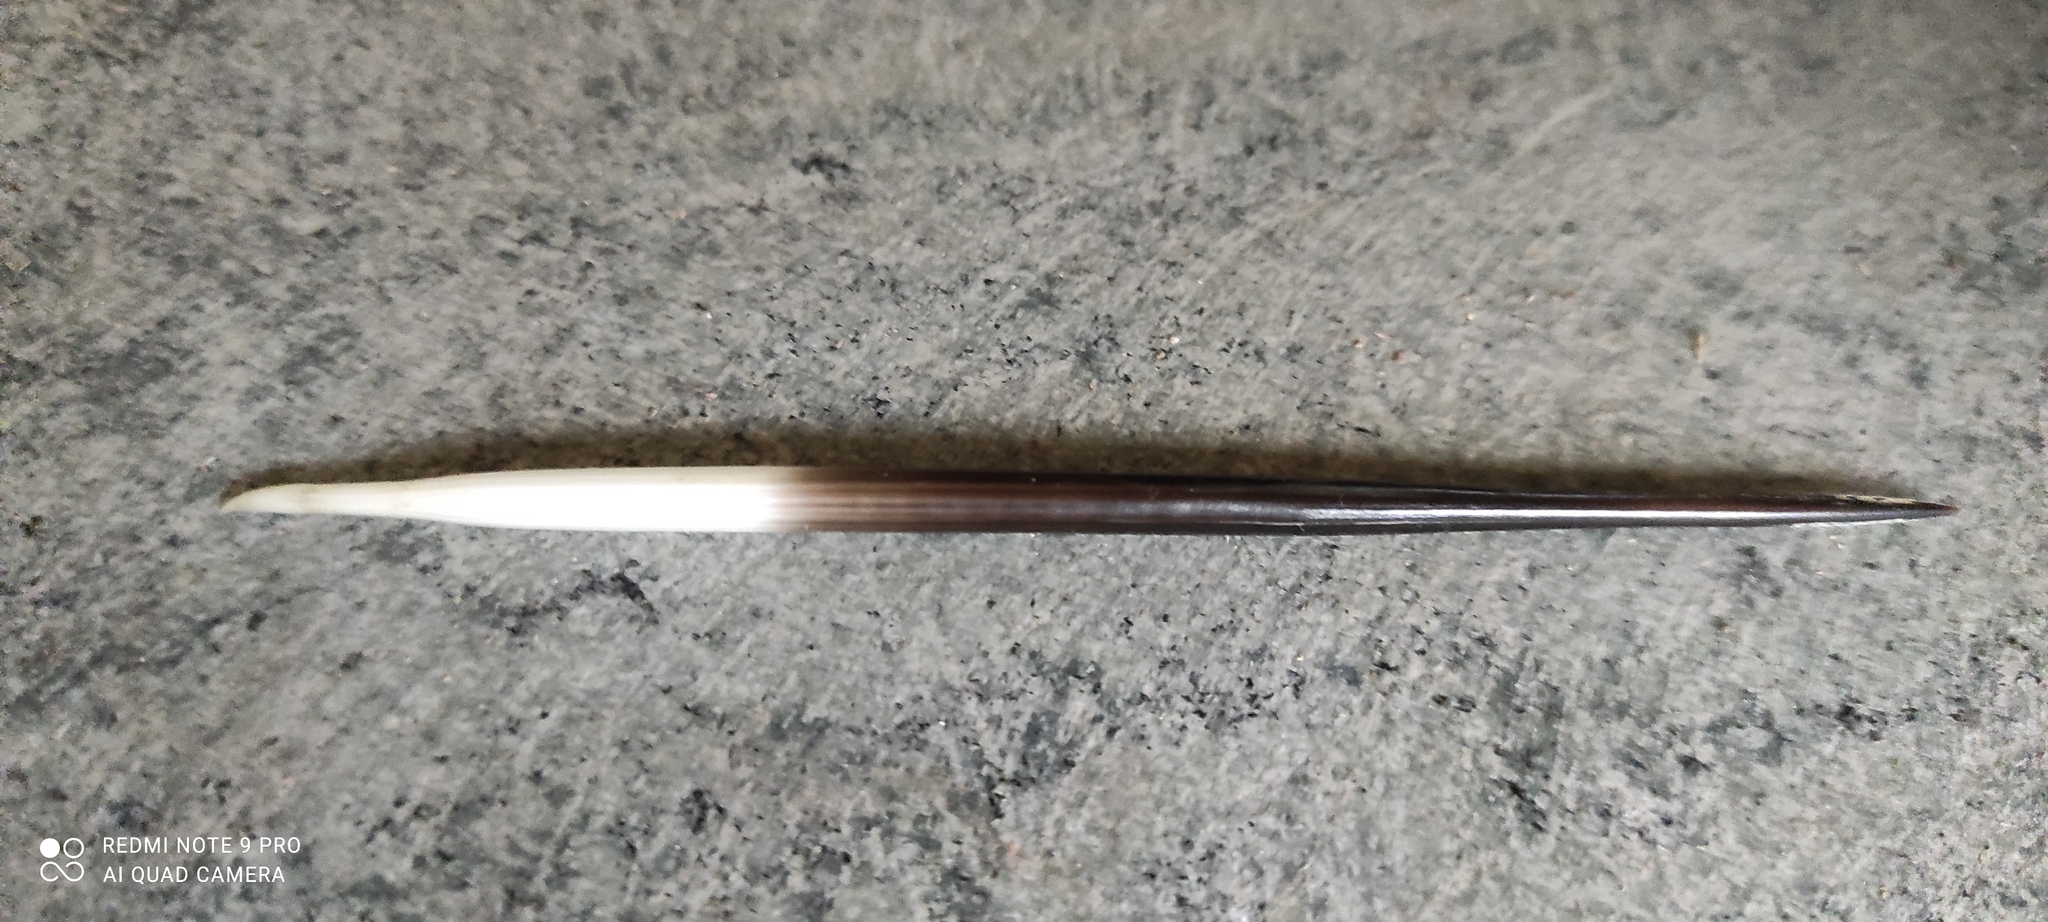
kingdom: Animalia
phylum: Chordata
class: Mammalia
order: Rodentia
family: Hystricidae
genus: Hystrix
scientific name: Hystrix cristata
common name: Crested porcupine
